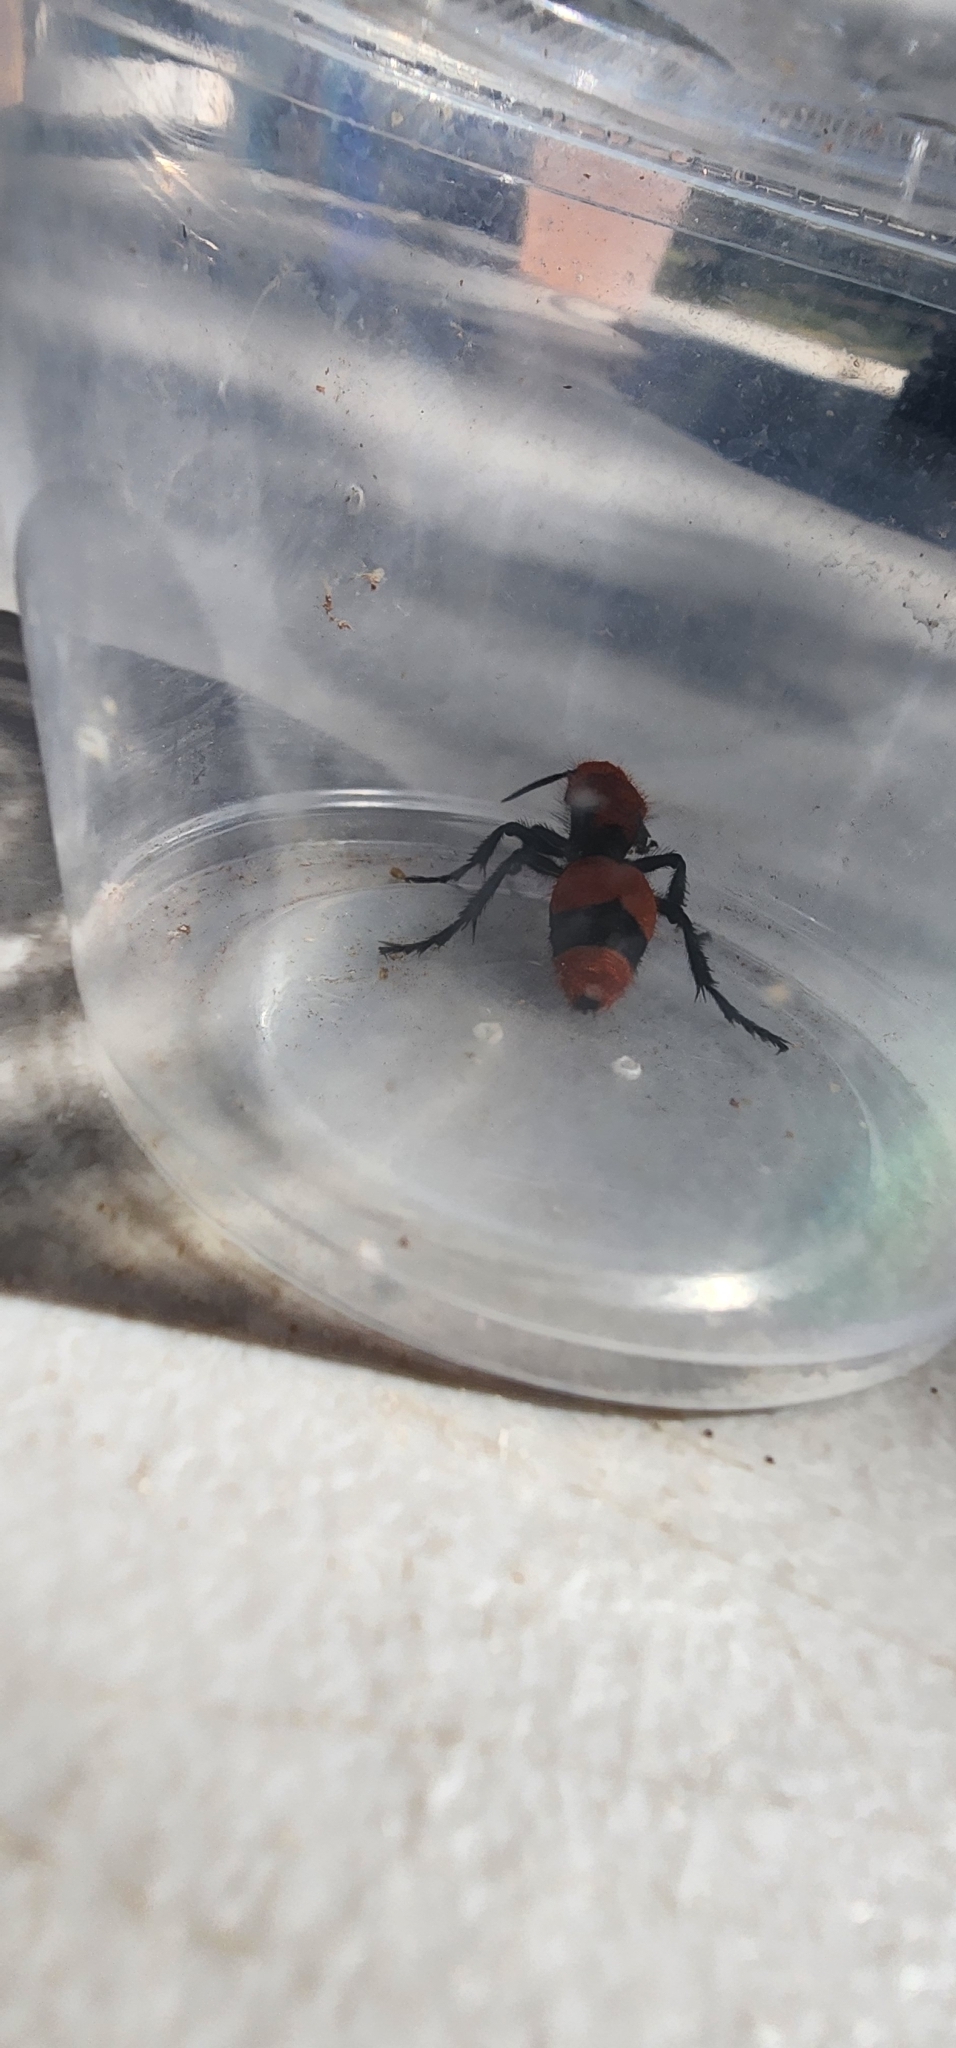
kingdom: Animalia
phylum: Arthropoda
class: Insecta
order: Hymenoptera
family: Mutillidae
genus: Dasymutilla
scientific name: Dasymutilla occidentalis
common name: Common eastern velvet ant
